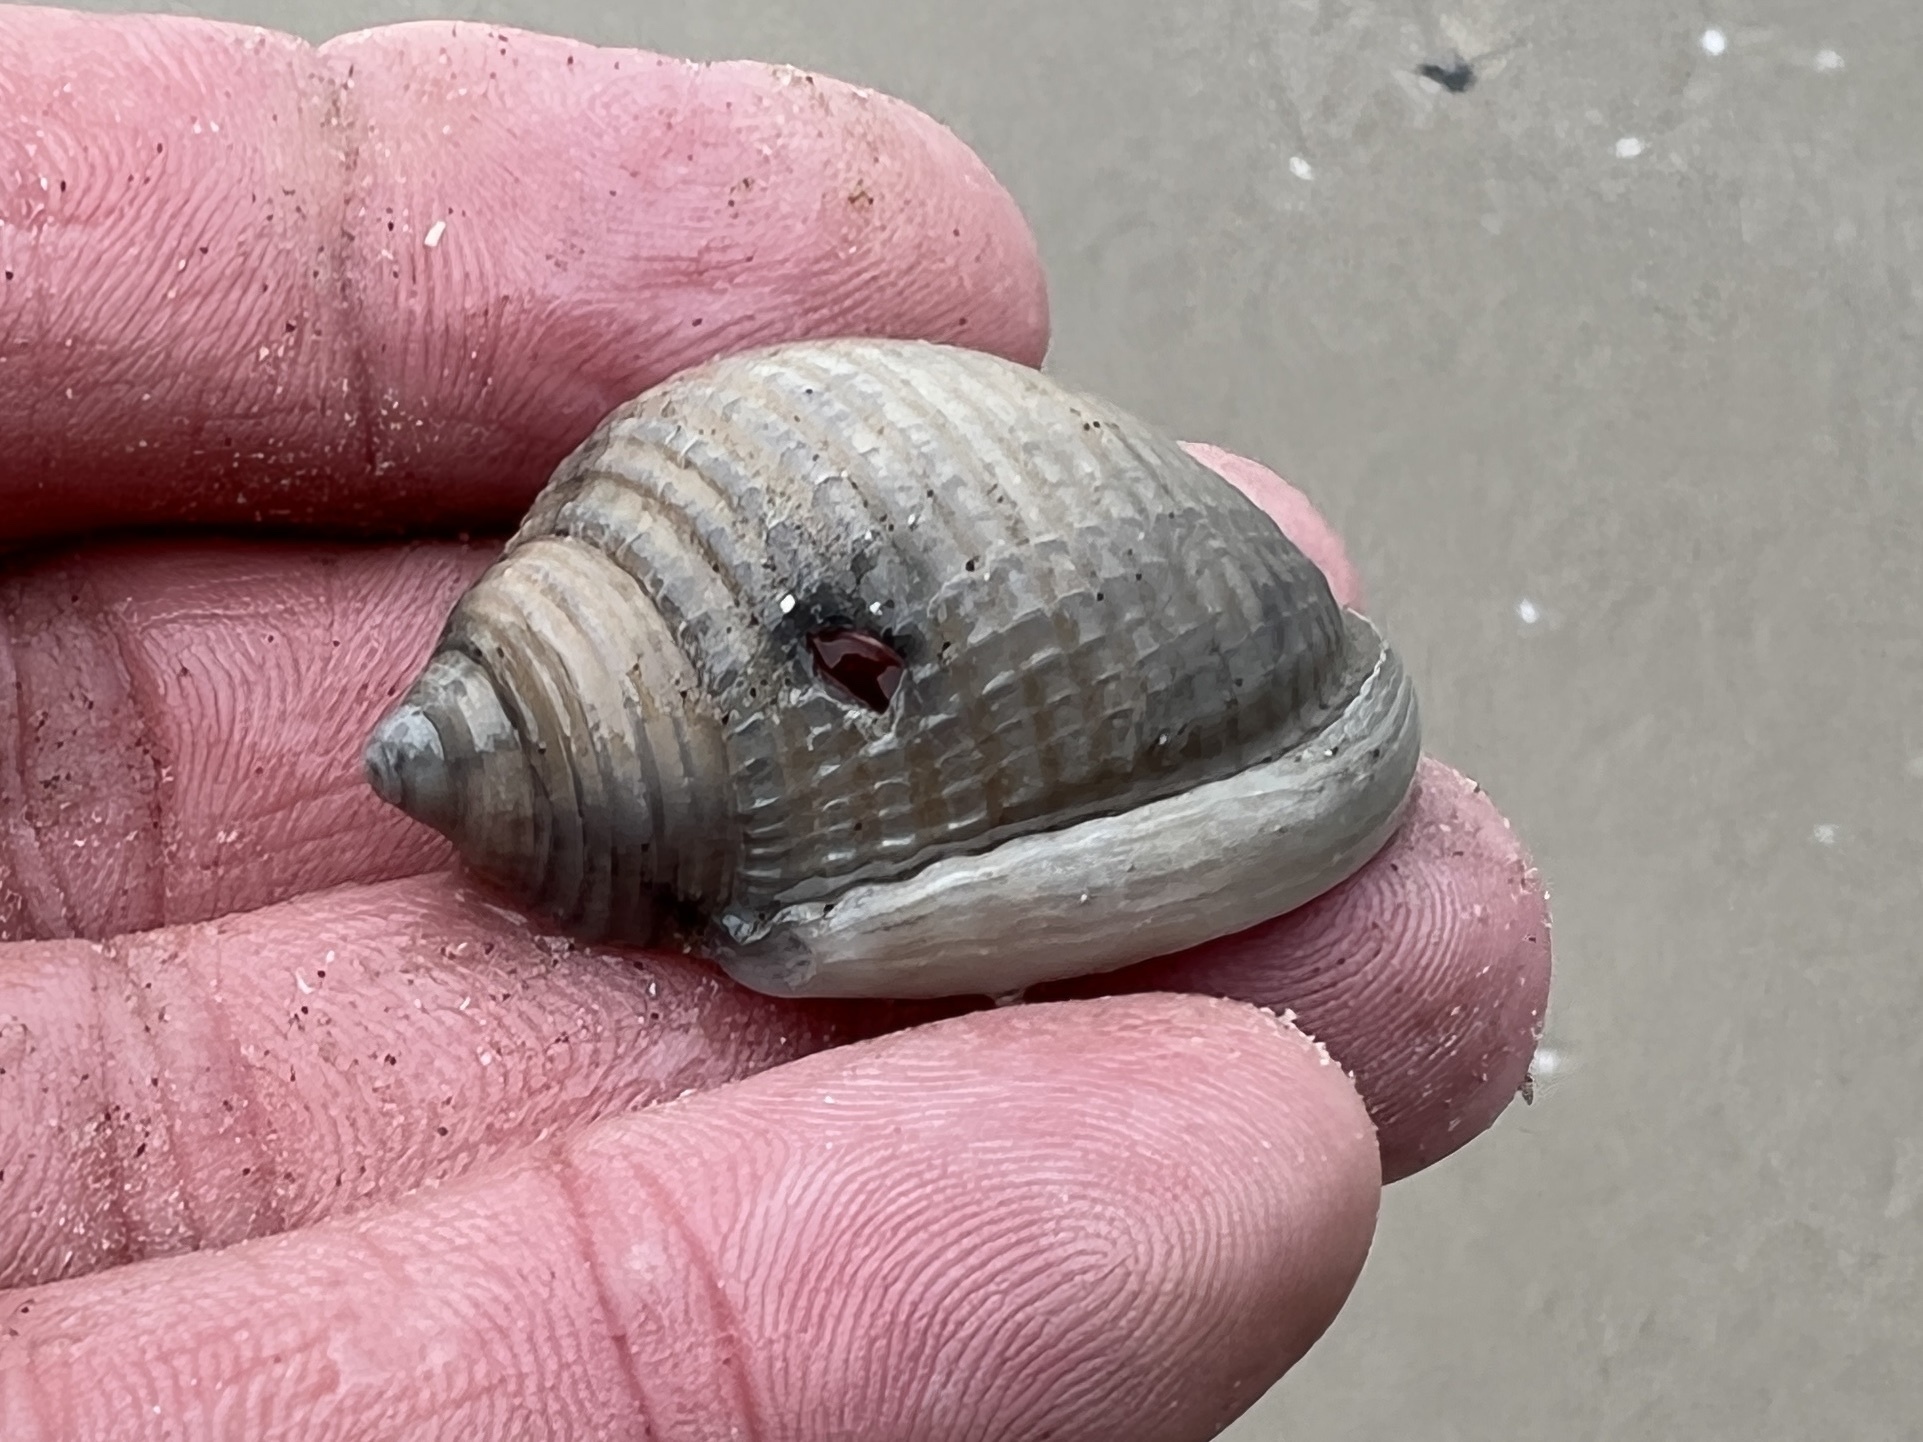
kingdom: Animalia
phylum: Mollusca
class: Gastropoda
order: Littorinimorpha
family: Cassidae
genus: Semicassis
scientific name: Semicassis granulata
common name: Scotch bonnet
